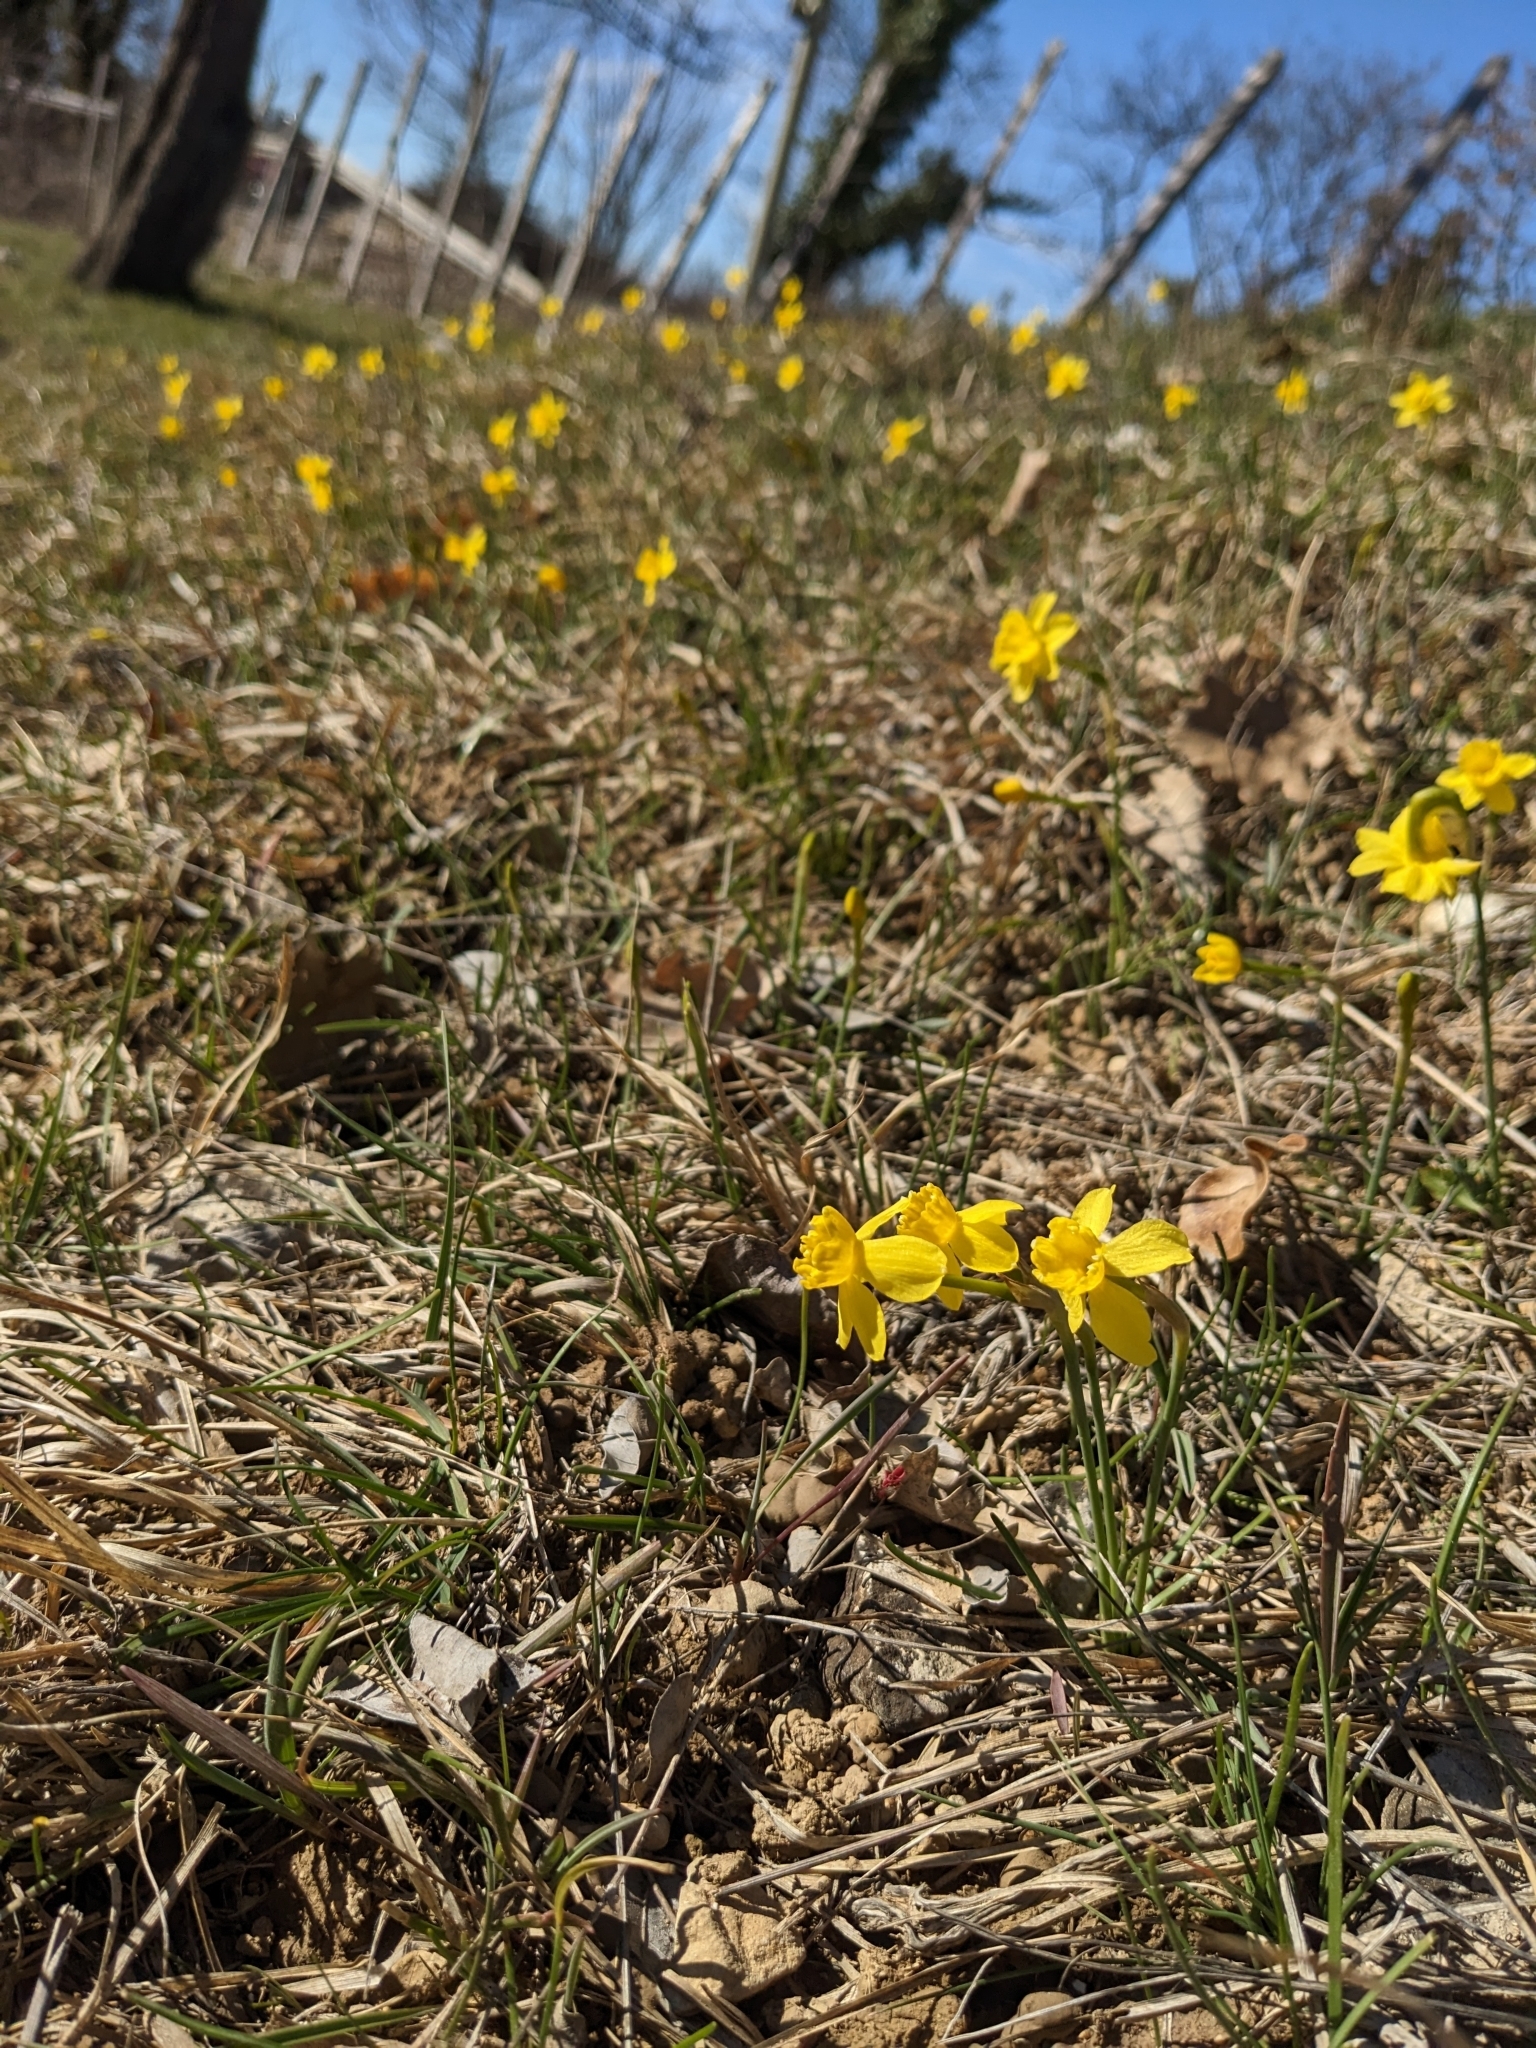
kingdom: Plantae
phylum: Tracheophyta
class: Liliopsida
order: Asparagales
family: Amaryllidaceae
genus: Narcissus
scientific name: Narcissus assoanus
